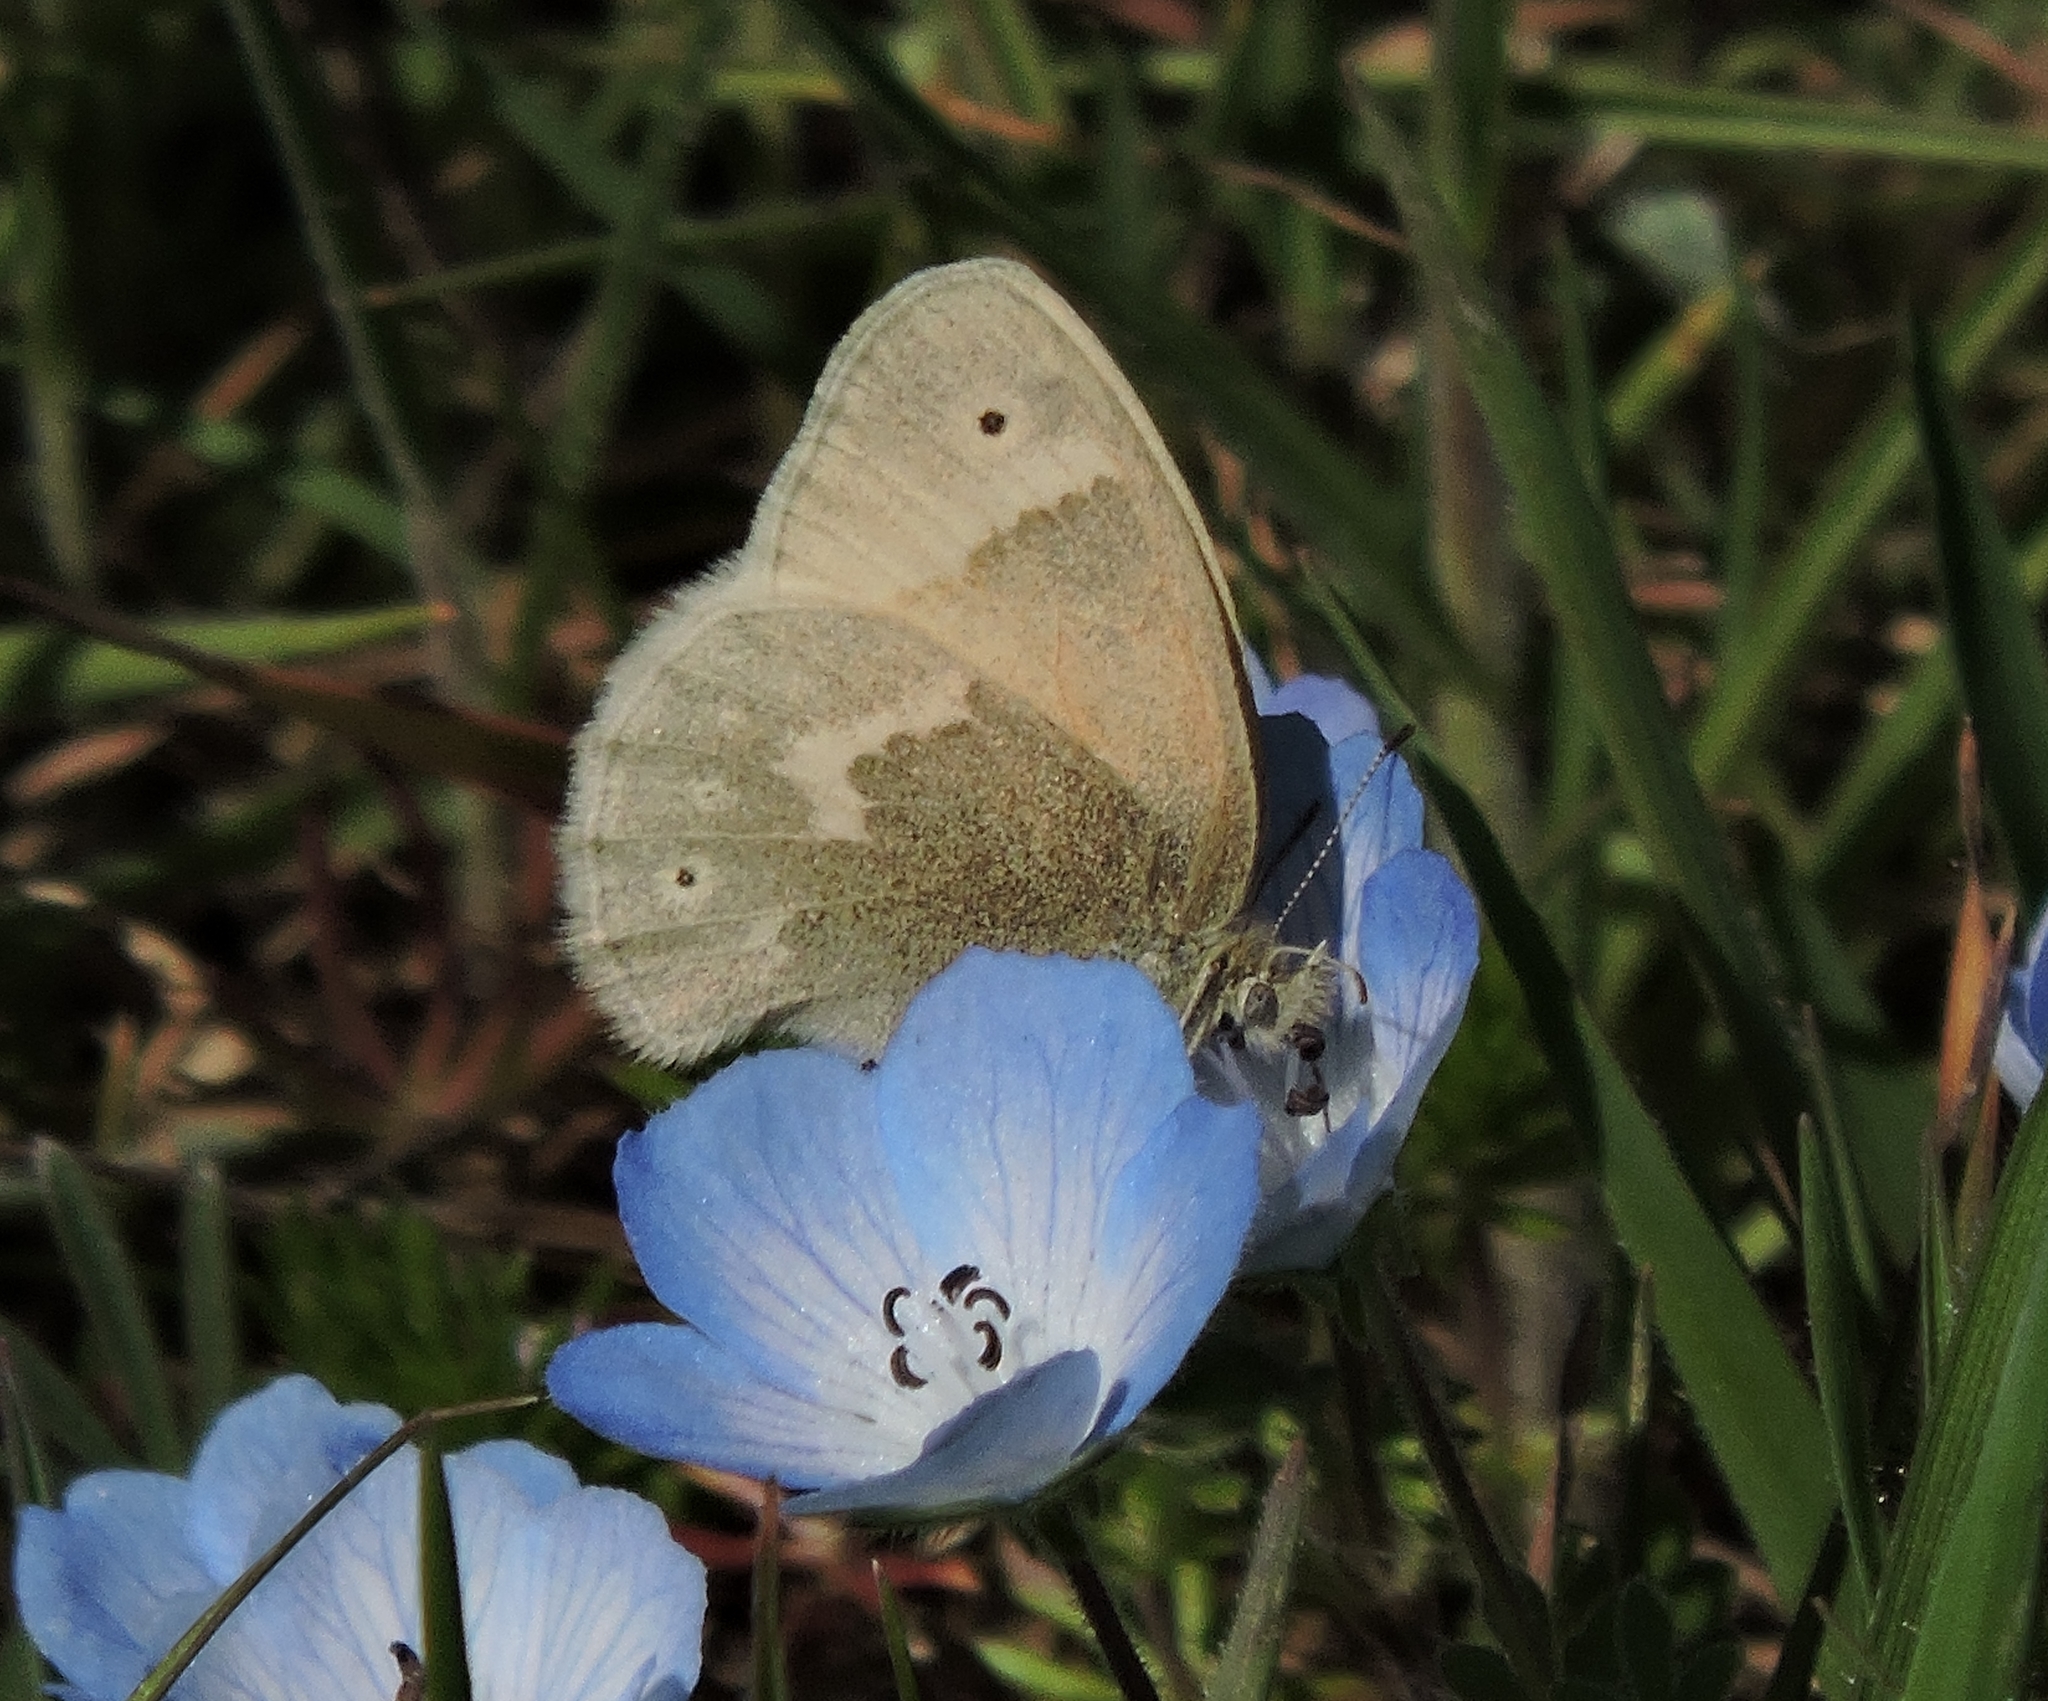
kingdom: Animalia
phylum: Arthropoda
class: Insecta
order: Lepidoptera
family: Nymphalidae
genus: Coenonympha
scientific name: Coenonympha california
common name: Common ringlet
